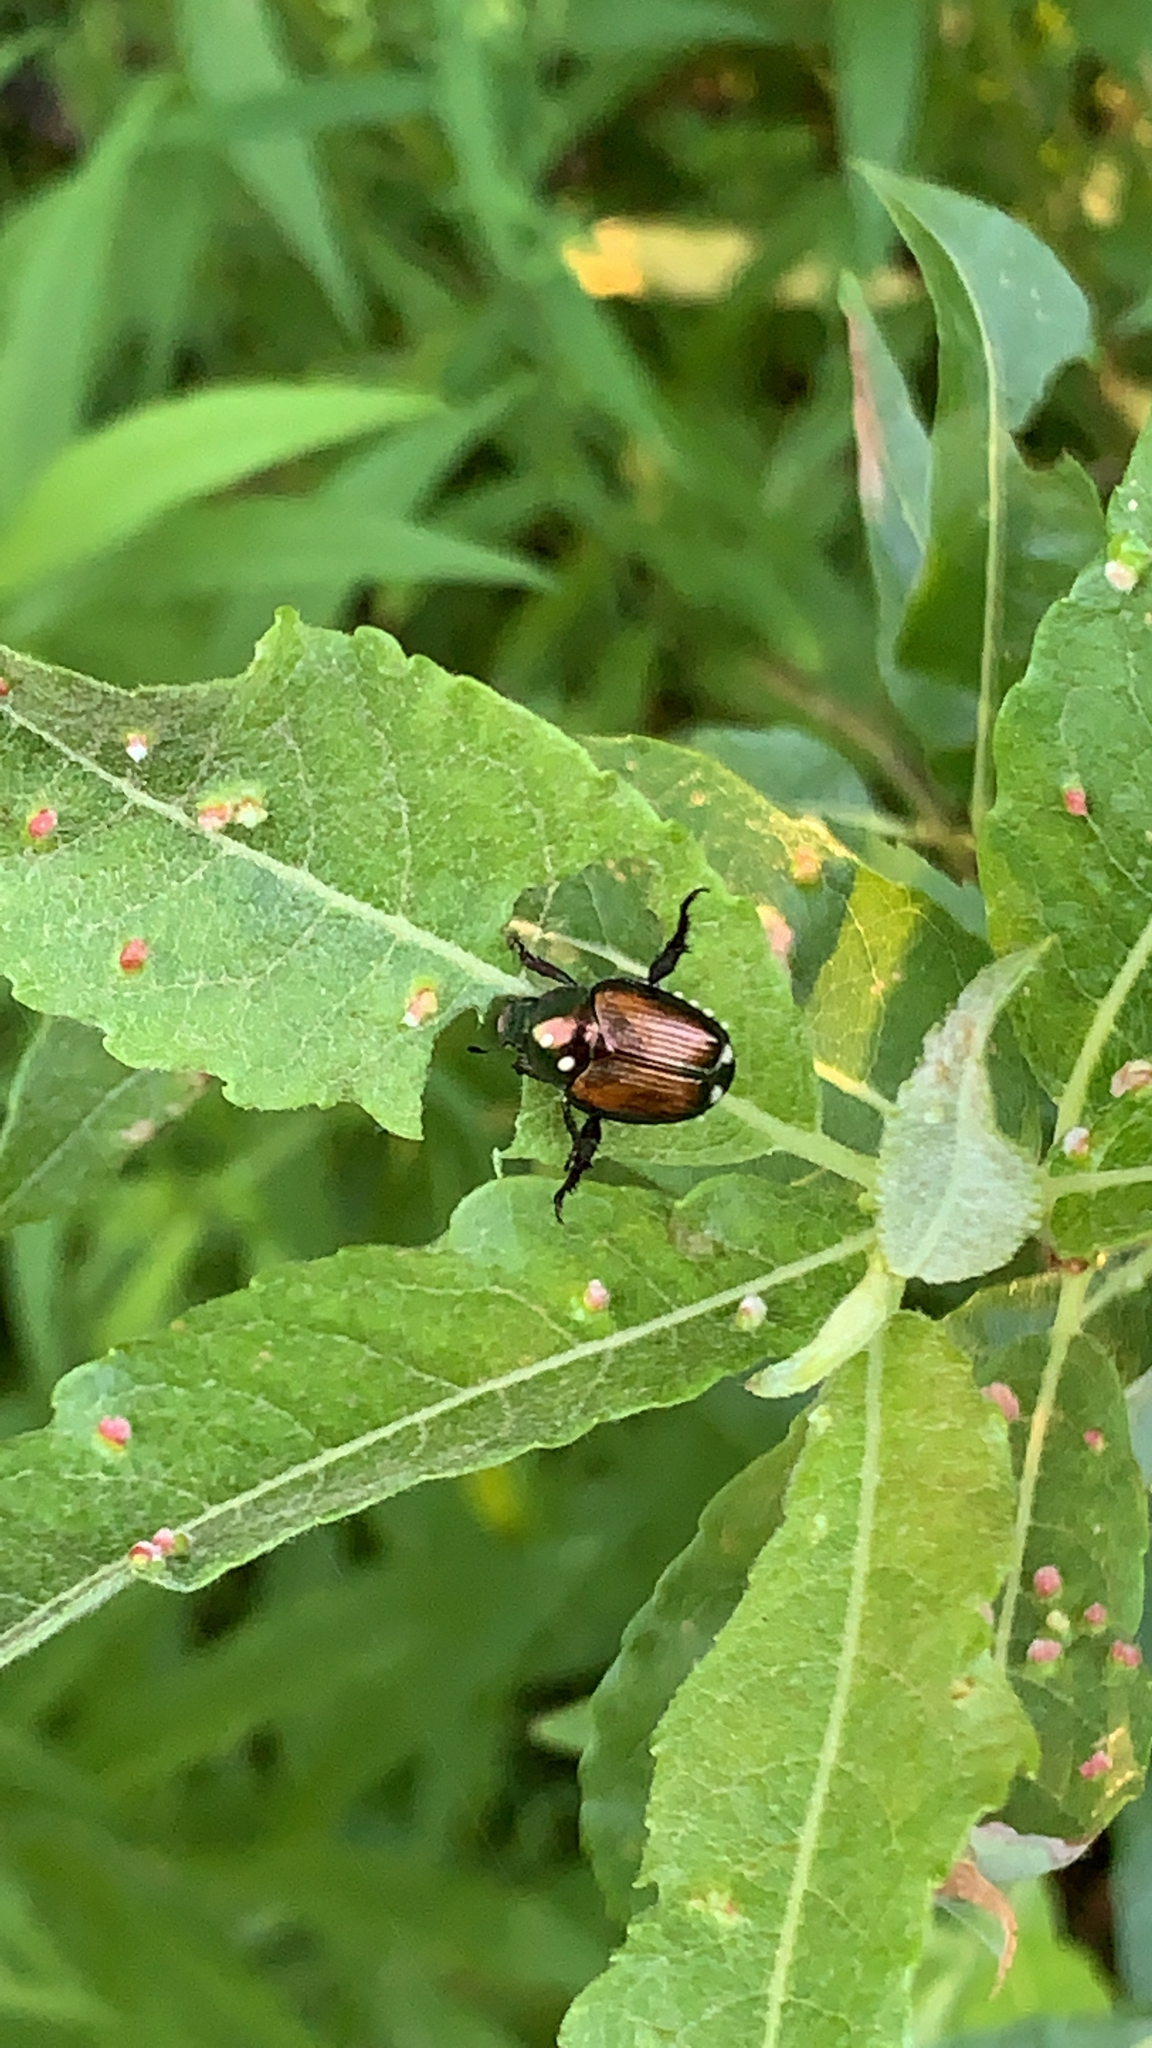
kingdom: Animalia
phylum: Arthropoda
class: Insecta
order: Coleoptera
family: Scarabaeidae
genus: Popillia
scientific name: Popillia japonica
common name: Japanese beetle
